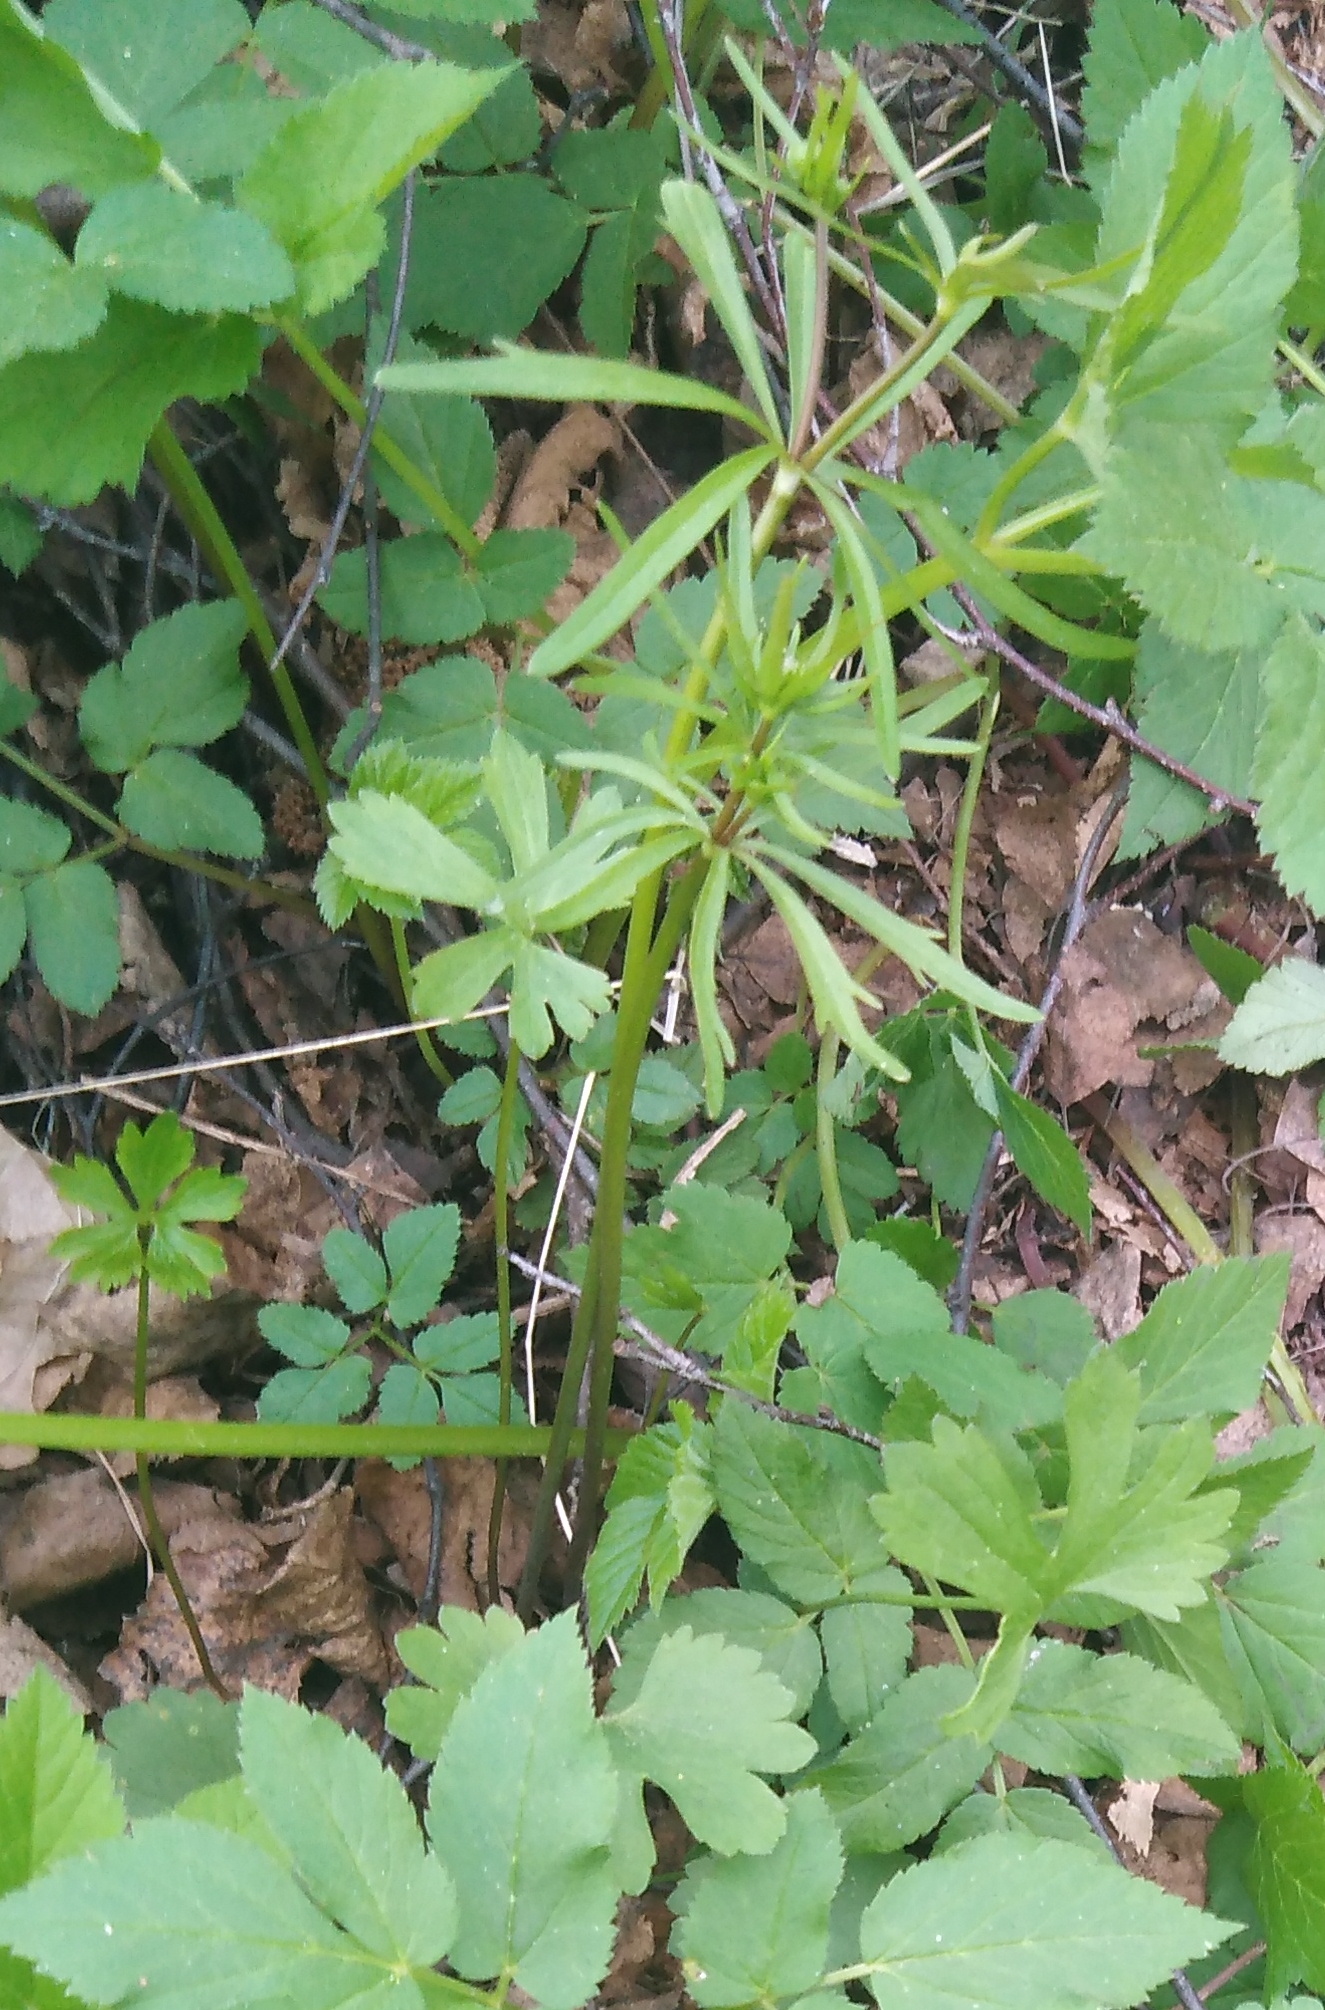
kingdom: Plantae
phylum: Tracheophyta
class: Magnoliopsida
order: Ranunculales
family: Ranunculaceae
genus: Ranunculus
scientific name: Ranunculus auricomus
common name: Goldilocks buttercup
